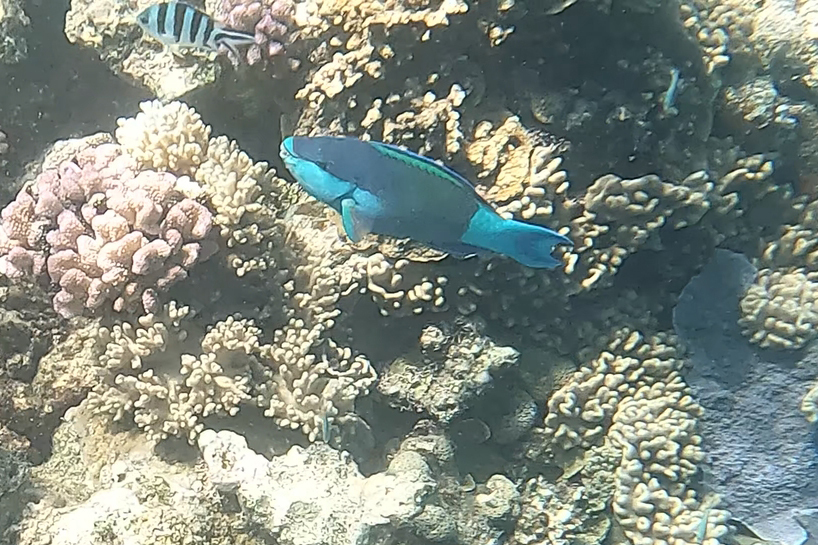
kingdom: Animalia
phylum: Chordata
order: Perciformes
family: Scaridae
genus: Scarus
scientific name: Scarus frenatus
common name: Bridled parrotfish
